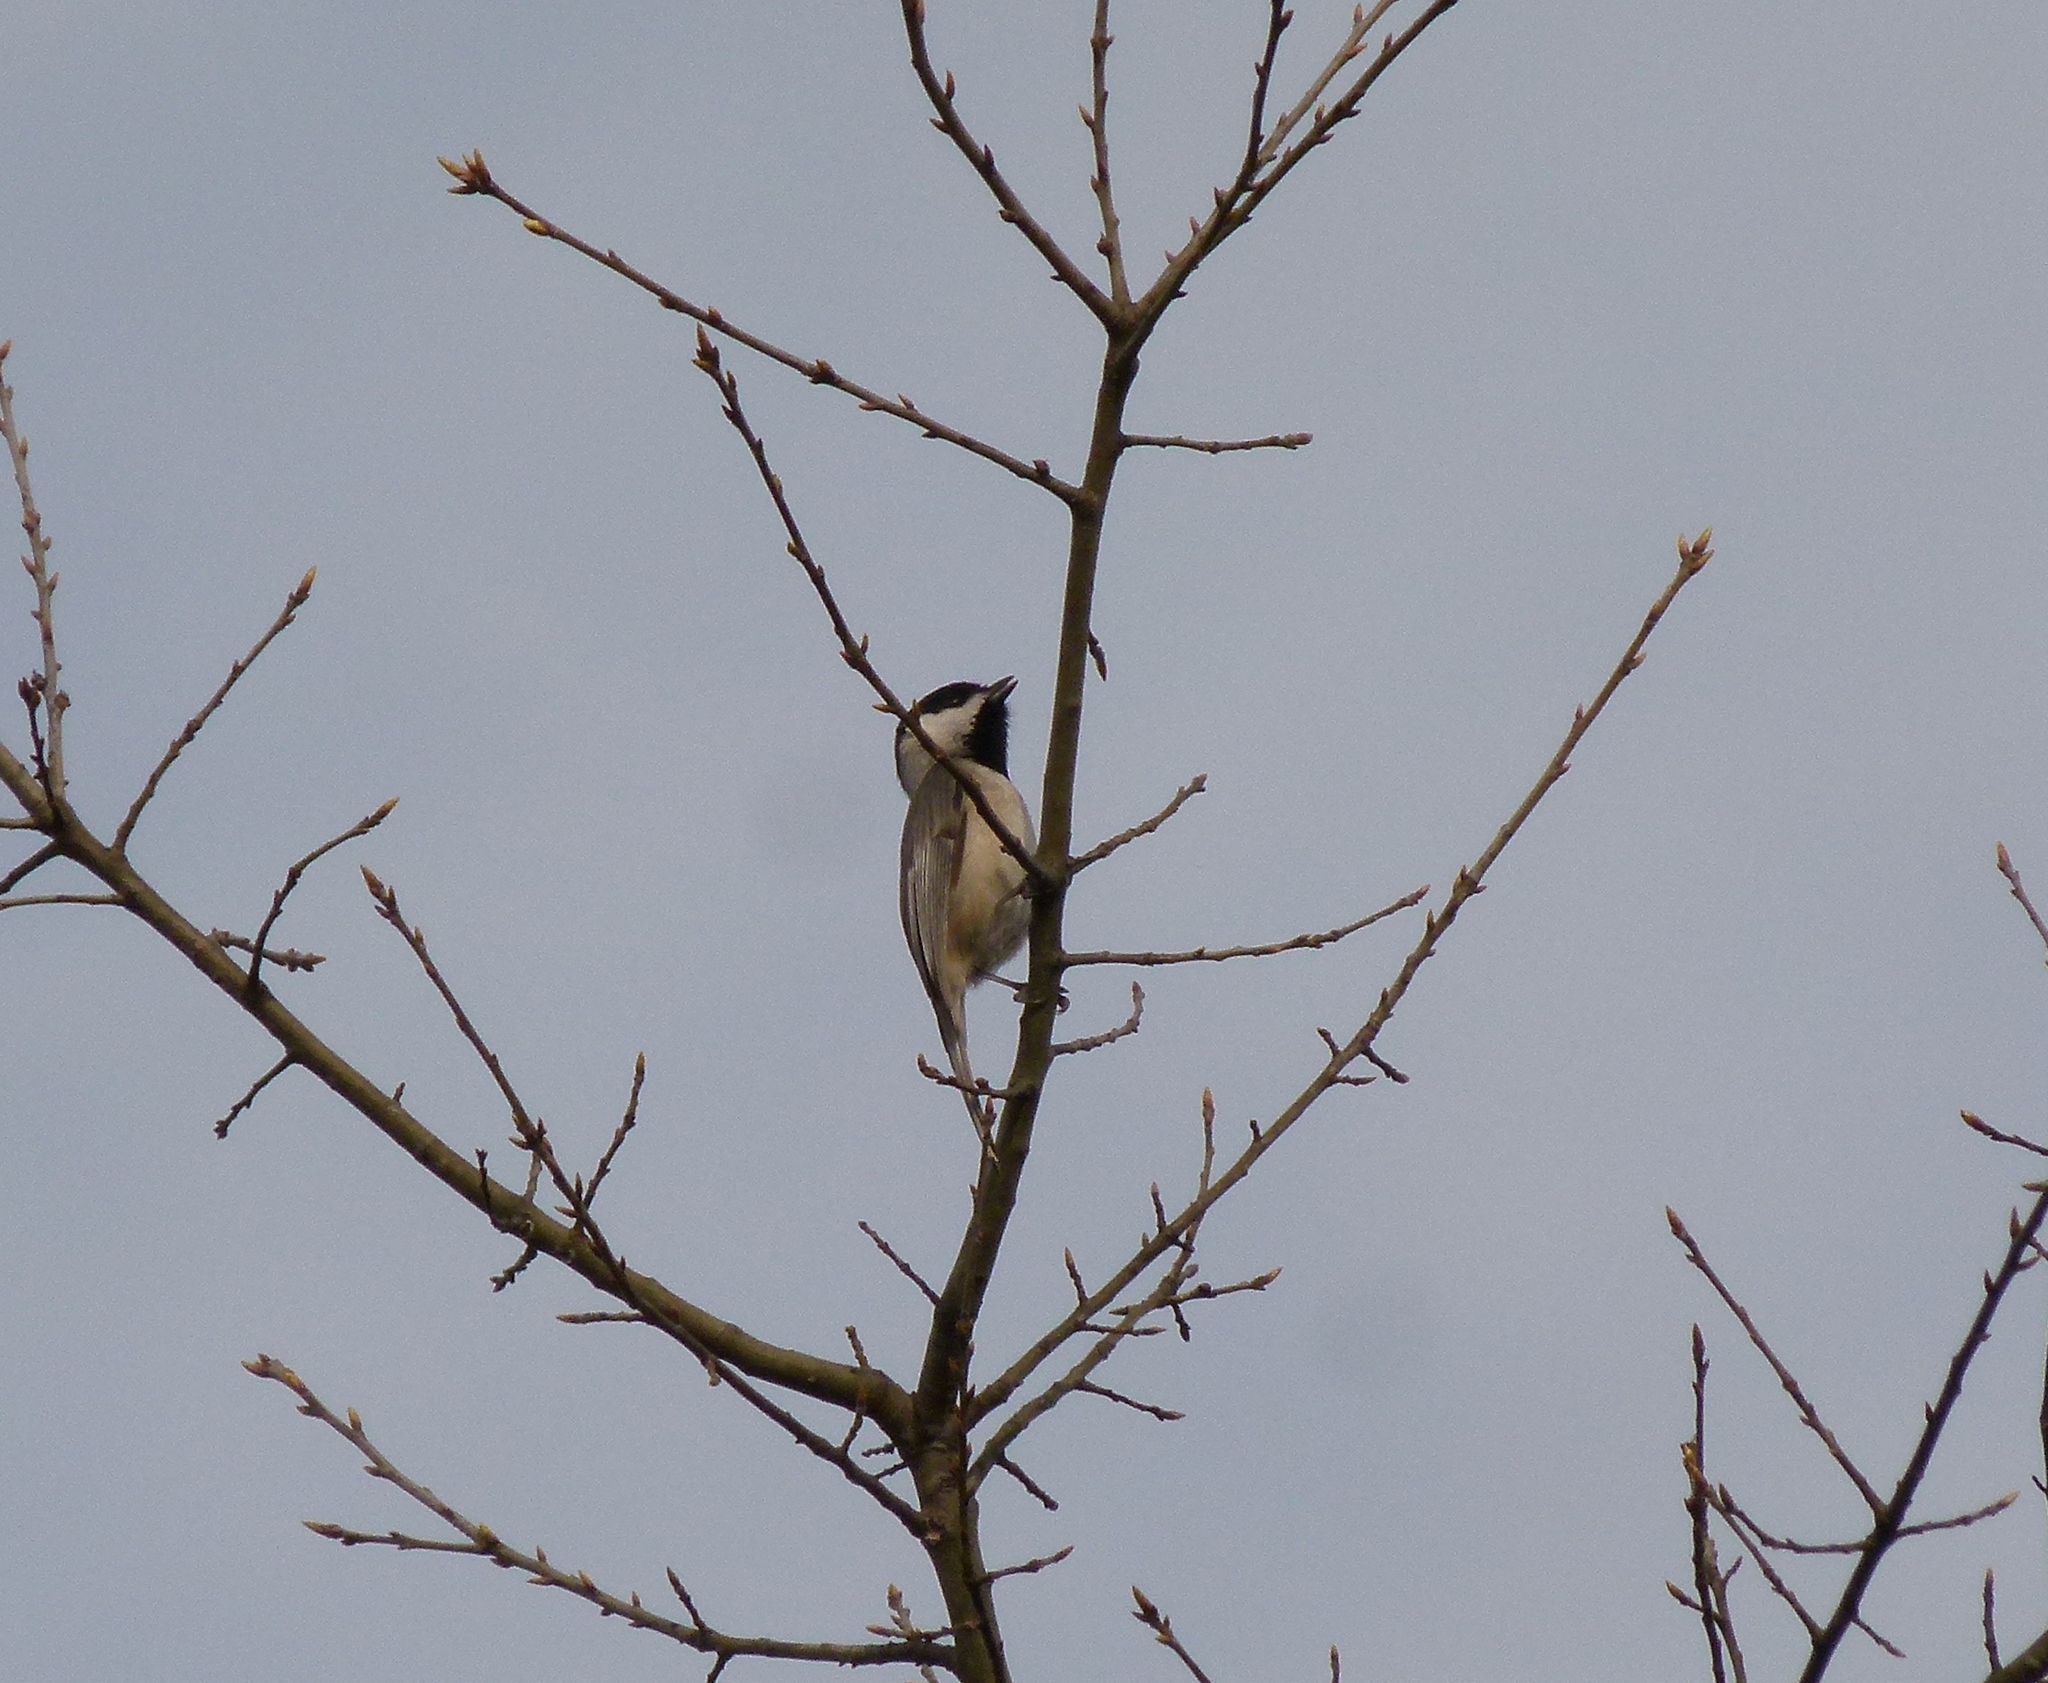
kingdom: Animalia
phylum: Chordata
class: Aves
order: Passeriformes
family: Paridae
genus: Poecile
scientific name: Poecile carolinensis
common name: Carolina chickadee
